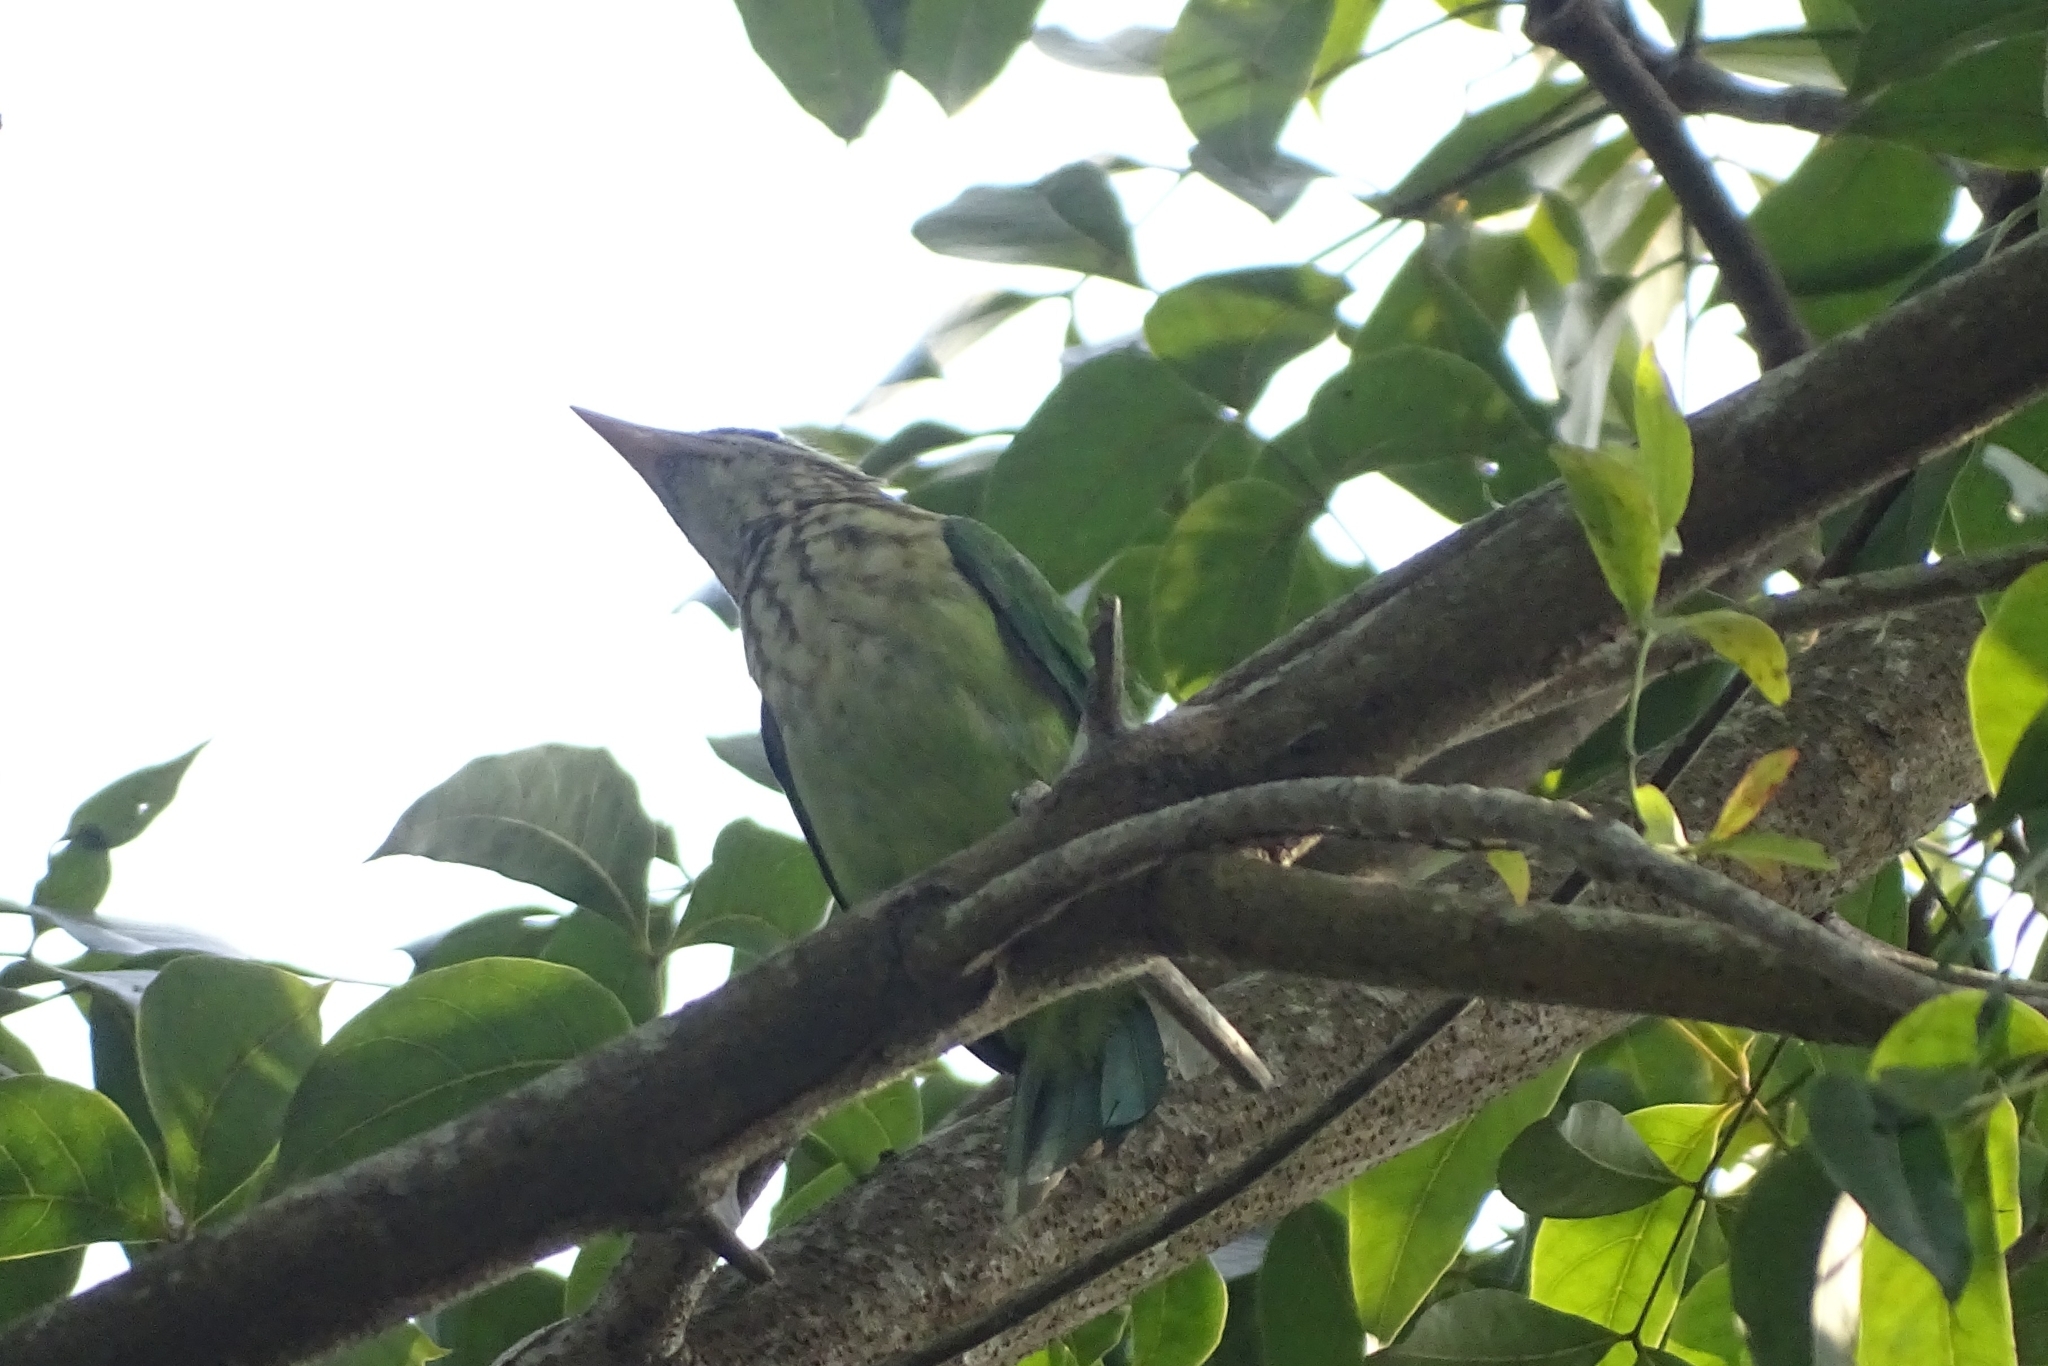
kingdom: Animalia
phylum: Chordata
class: Aves
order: Piciformes
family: Megalaimidae
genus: Psilopogon
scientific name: Psilopogon viridis
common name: White-cheeked barbet
